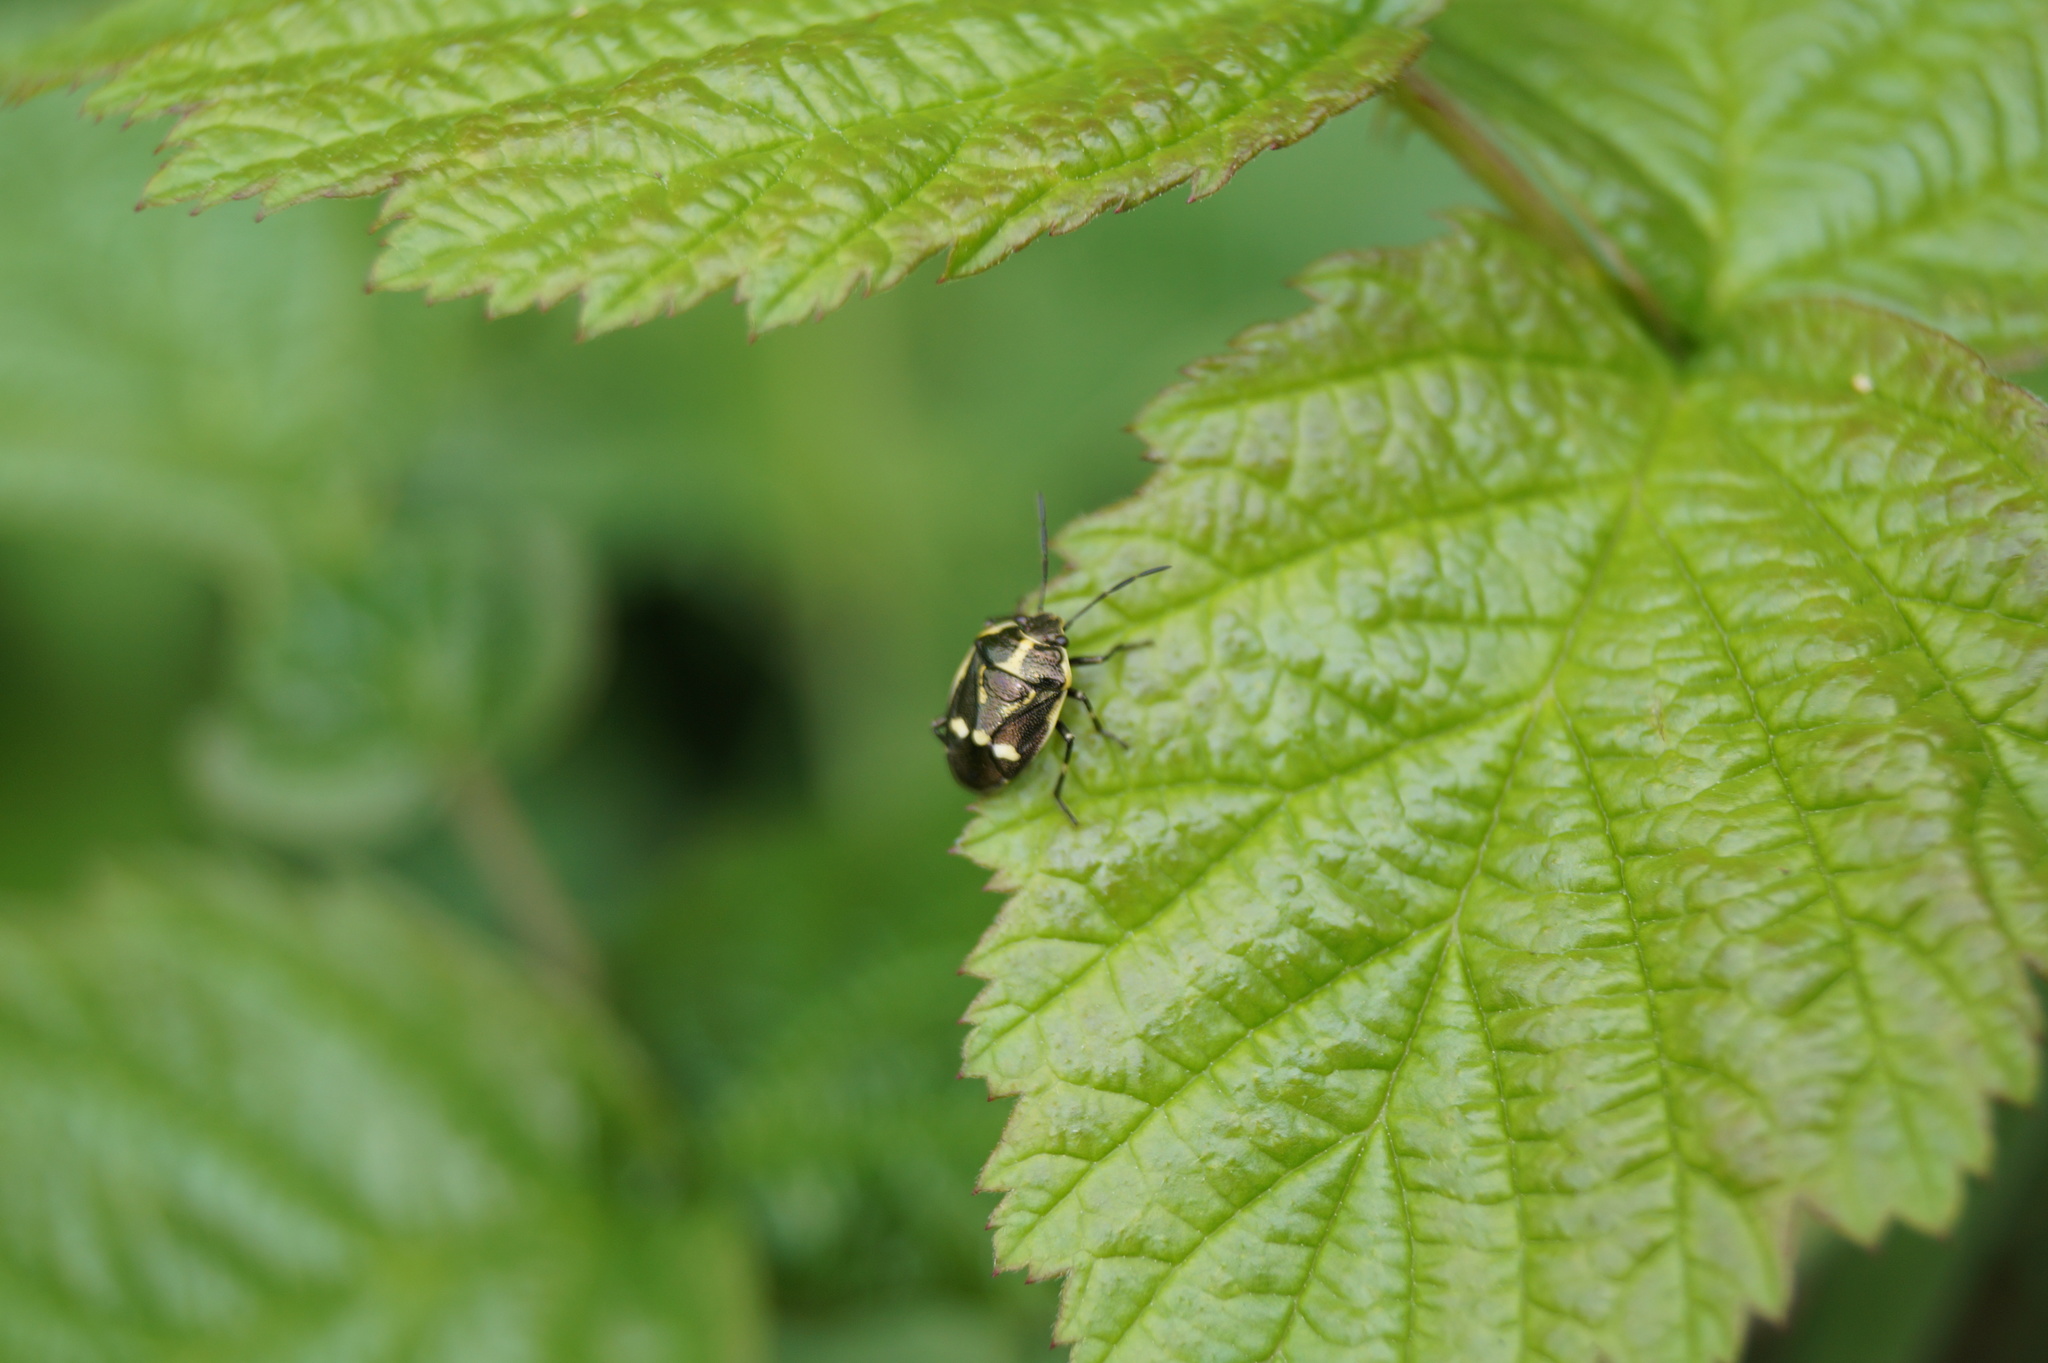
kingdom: Animalia
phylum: Arthropoda
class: Insecta
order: Hemiptera
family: Pentatomidae
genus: Eurydema
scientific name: Eurydema oleracea
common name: Cabbage bug
